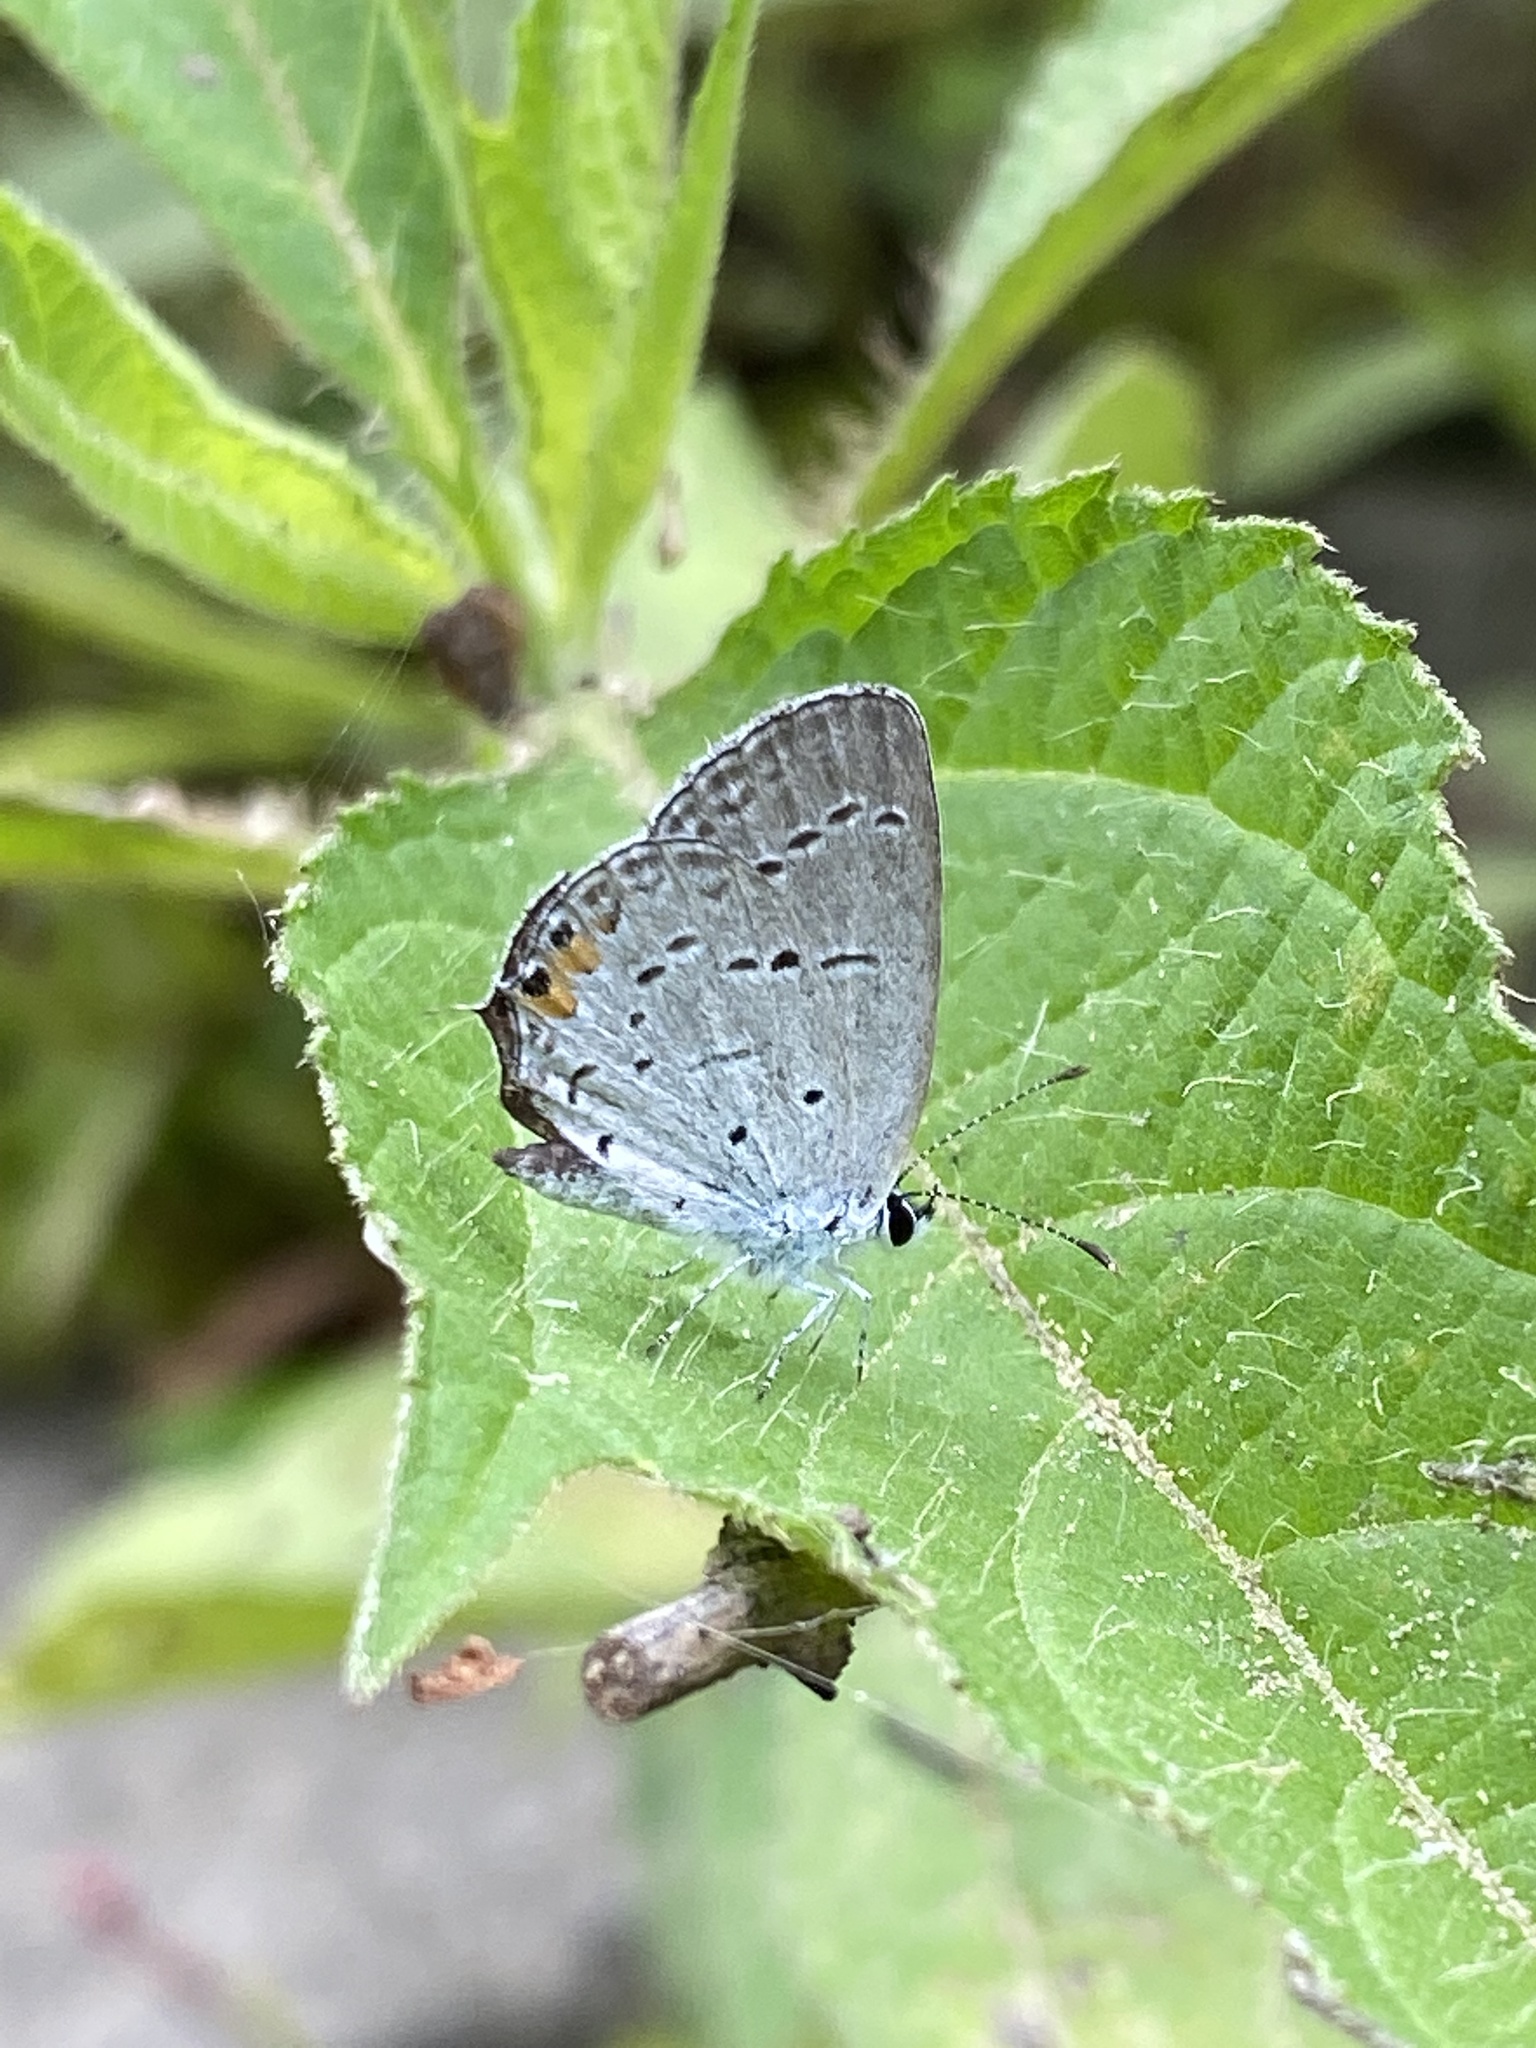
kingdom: Animalia
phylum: Arthropoda
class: Insecta
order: Lepidoptera
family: Lycaenidae
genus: Elkalyce
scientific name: Elkalyce comyntas
